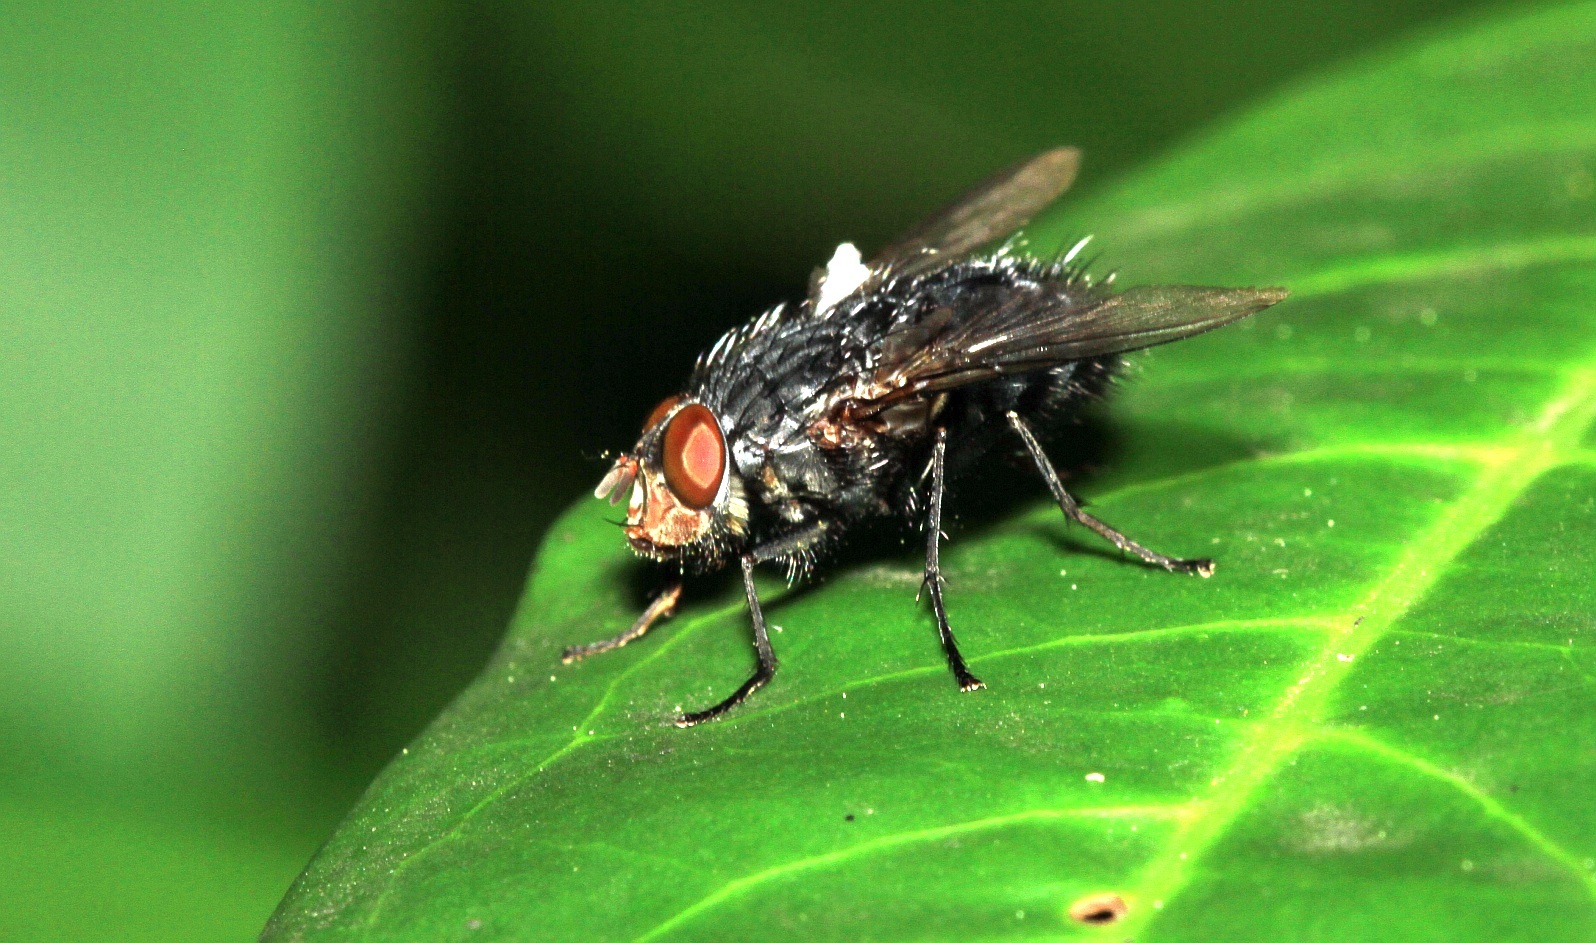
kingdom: Animalia
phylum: Arthropoda
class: Insecta
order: Diptera
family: Calliphoridae
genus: Calliphora
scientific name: Calliphora vicina
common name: Common blow flie
